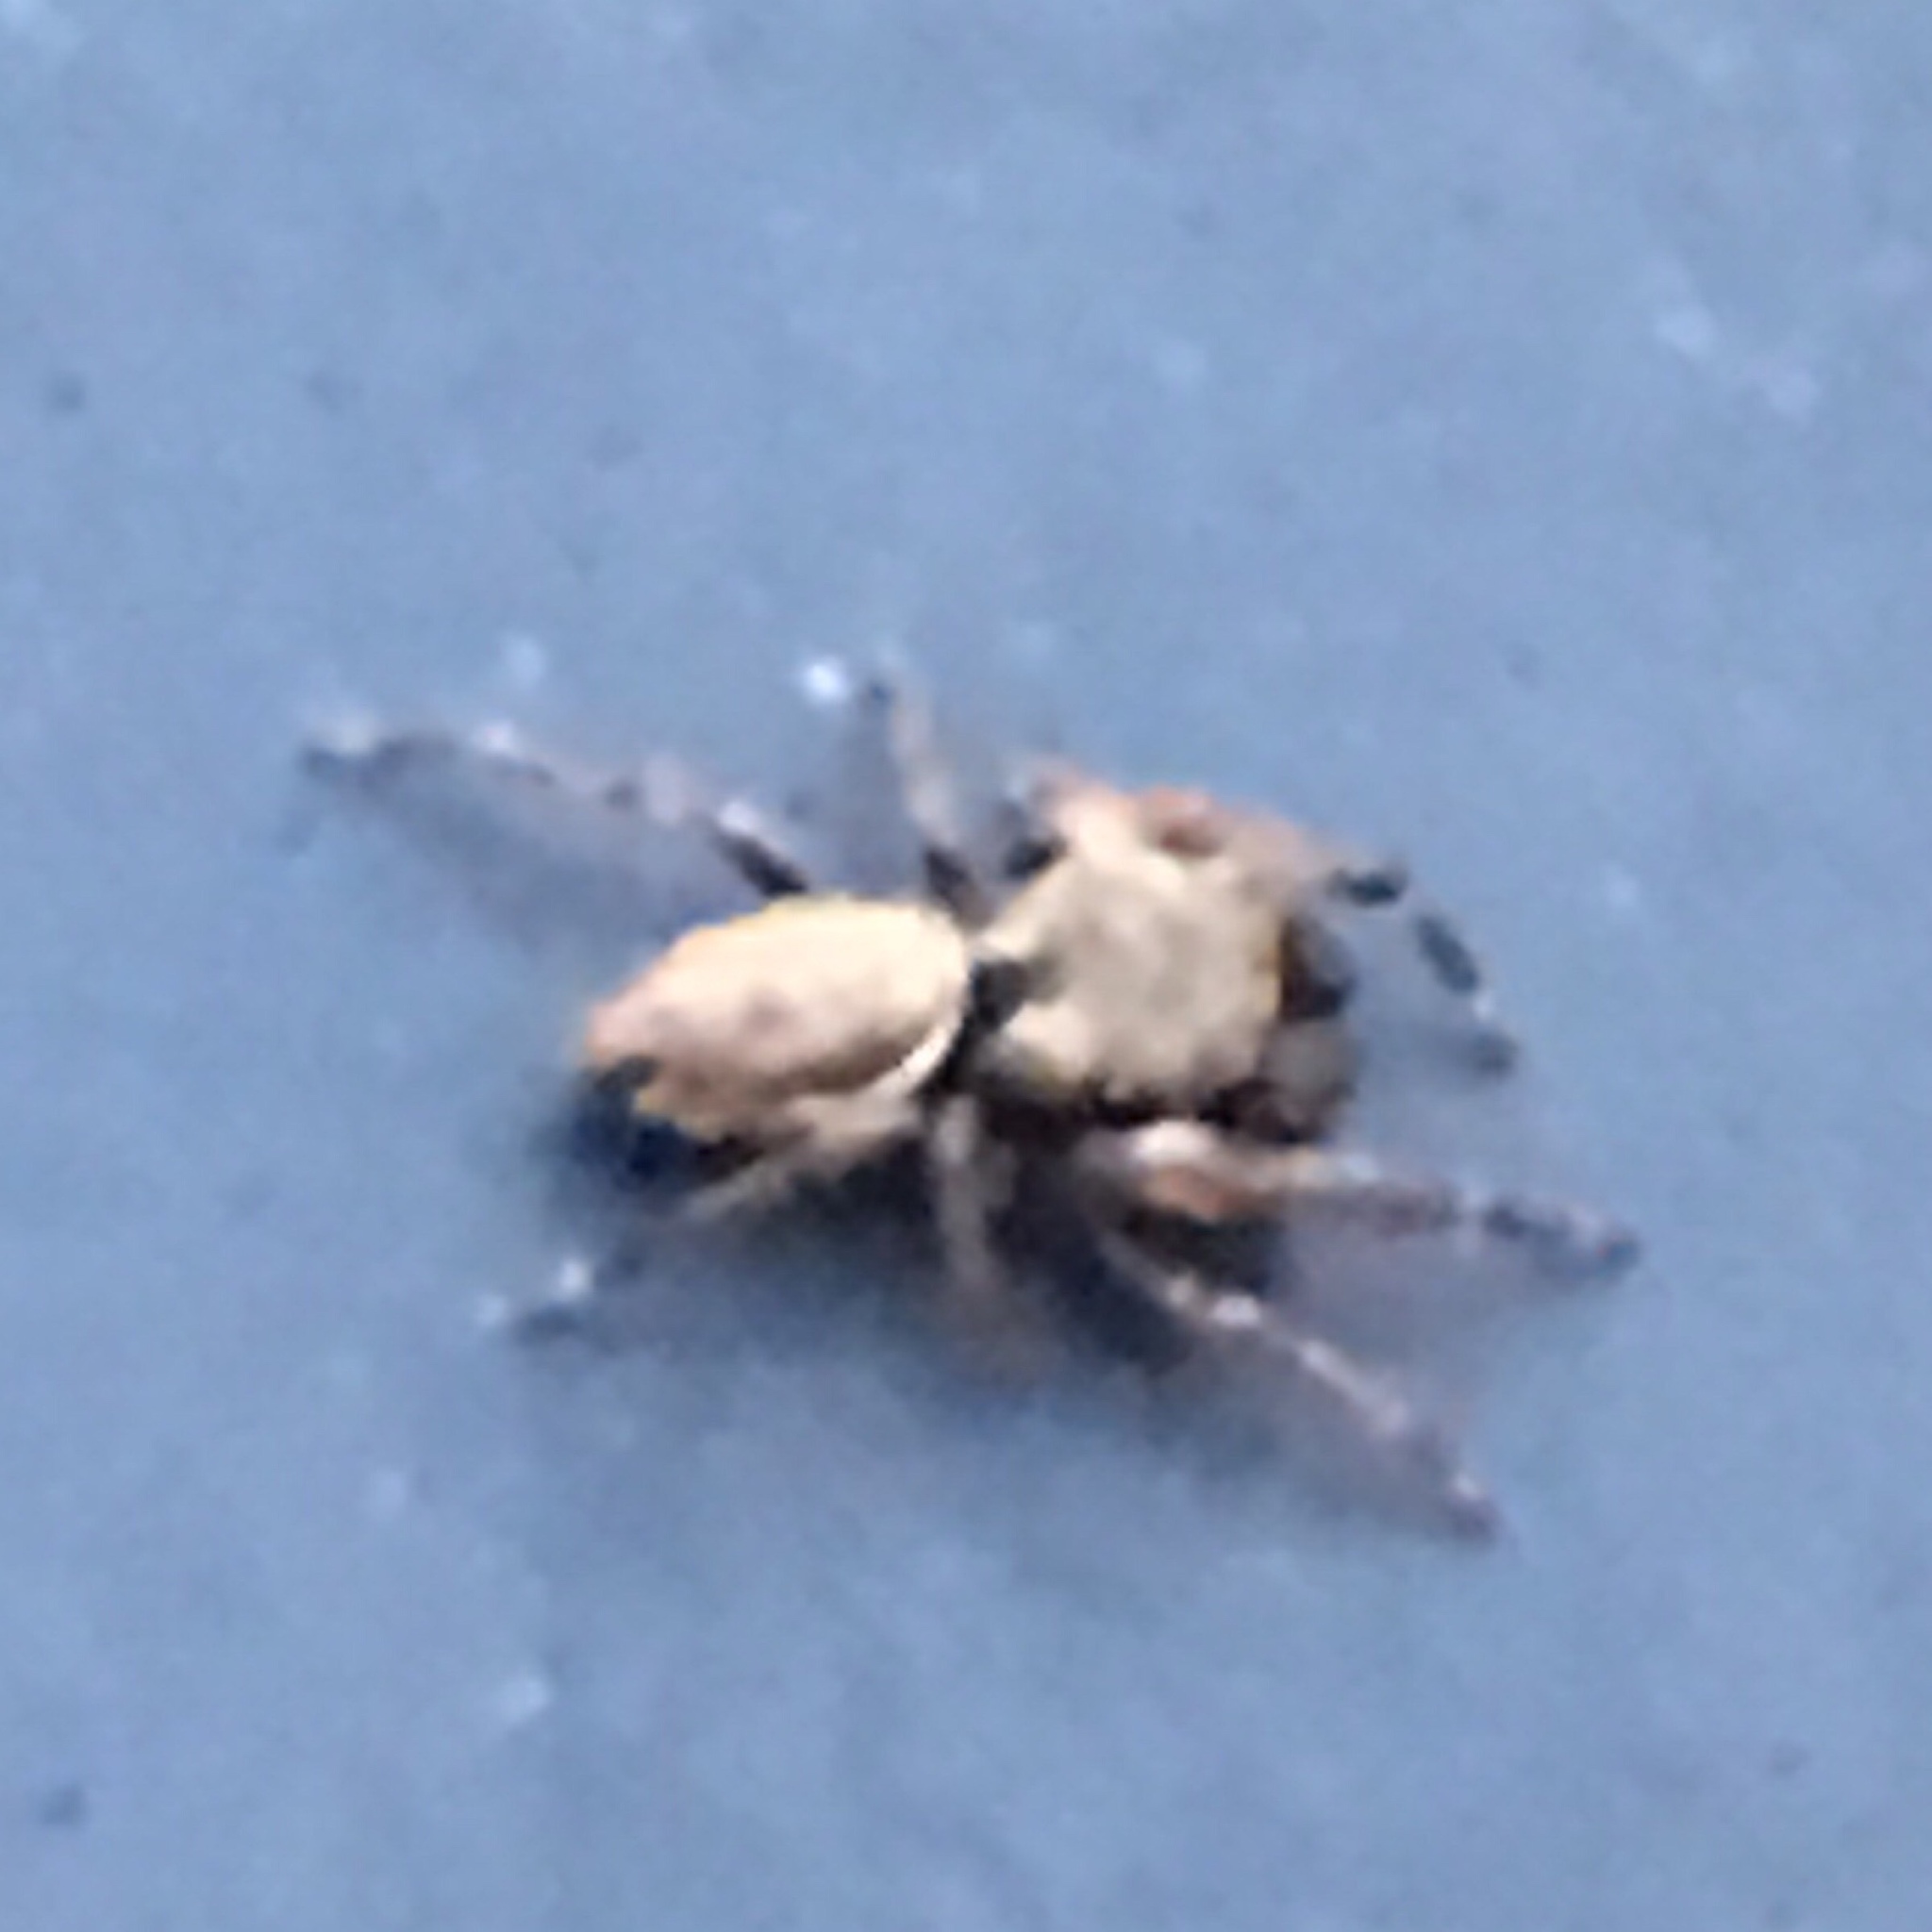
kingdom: Animalia
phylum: Arthropoda
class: Arachnida
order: Araneae
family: Salticidae
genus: Zygoballus
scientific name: Zygoballus nervosus
